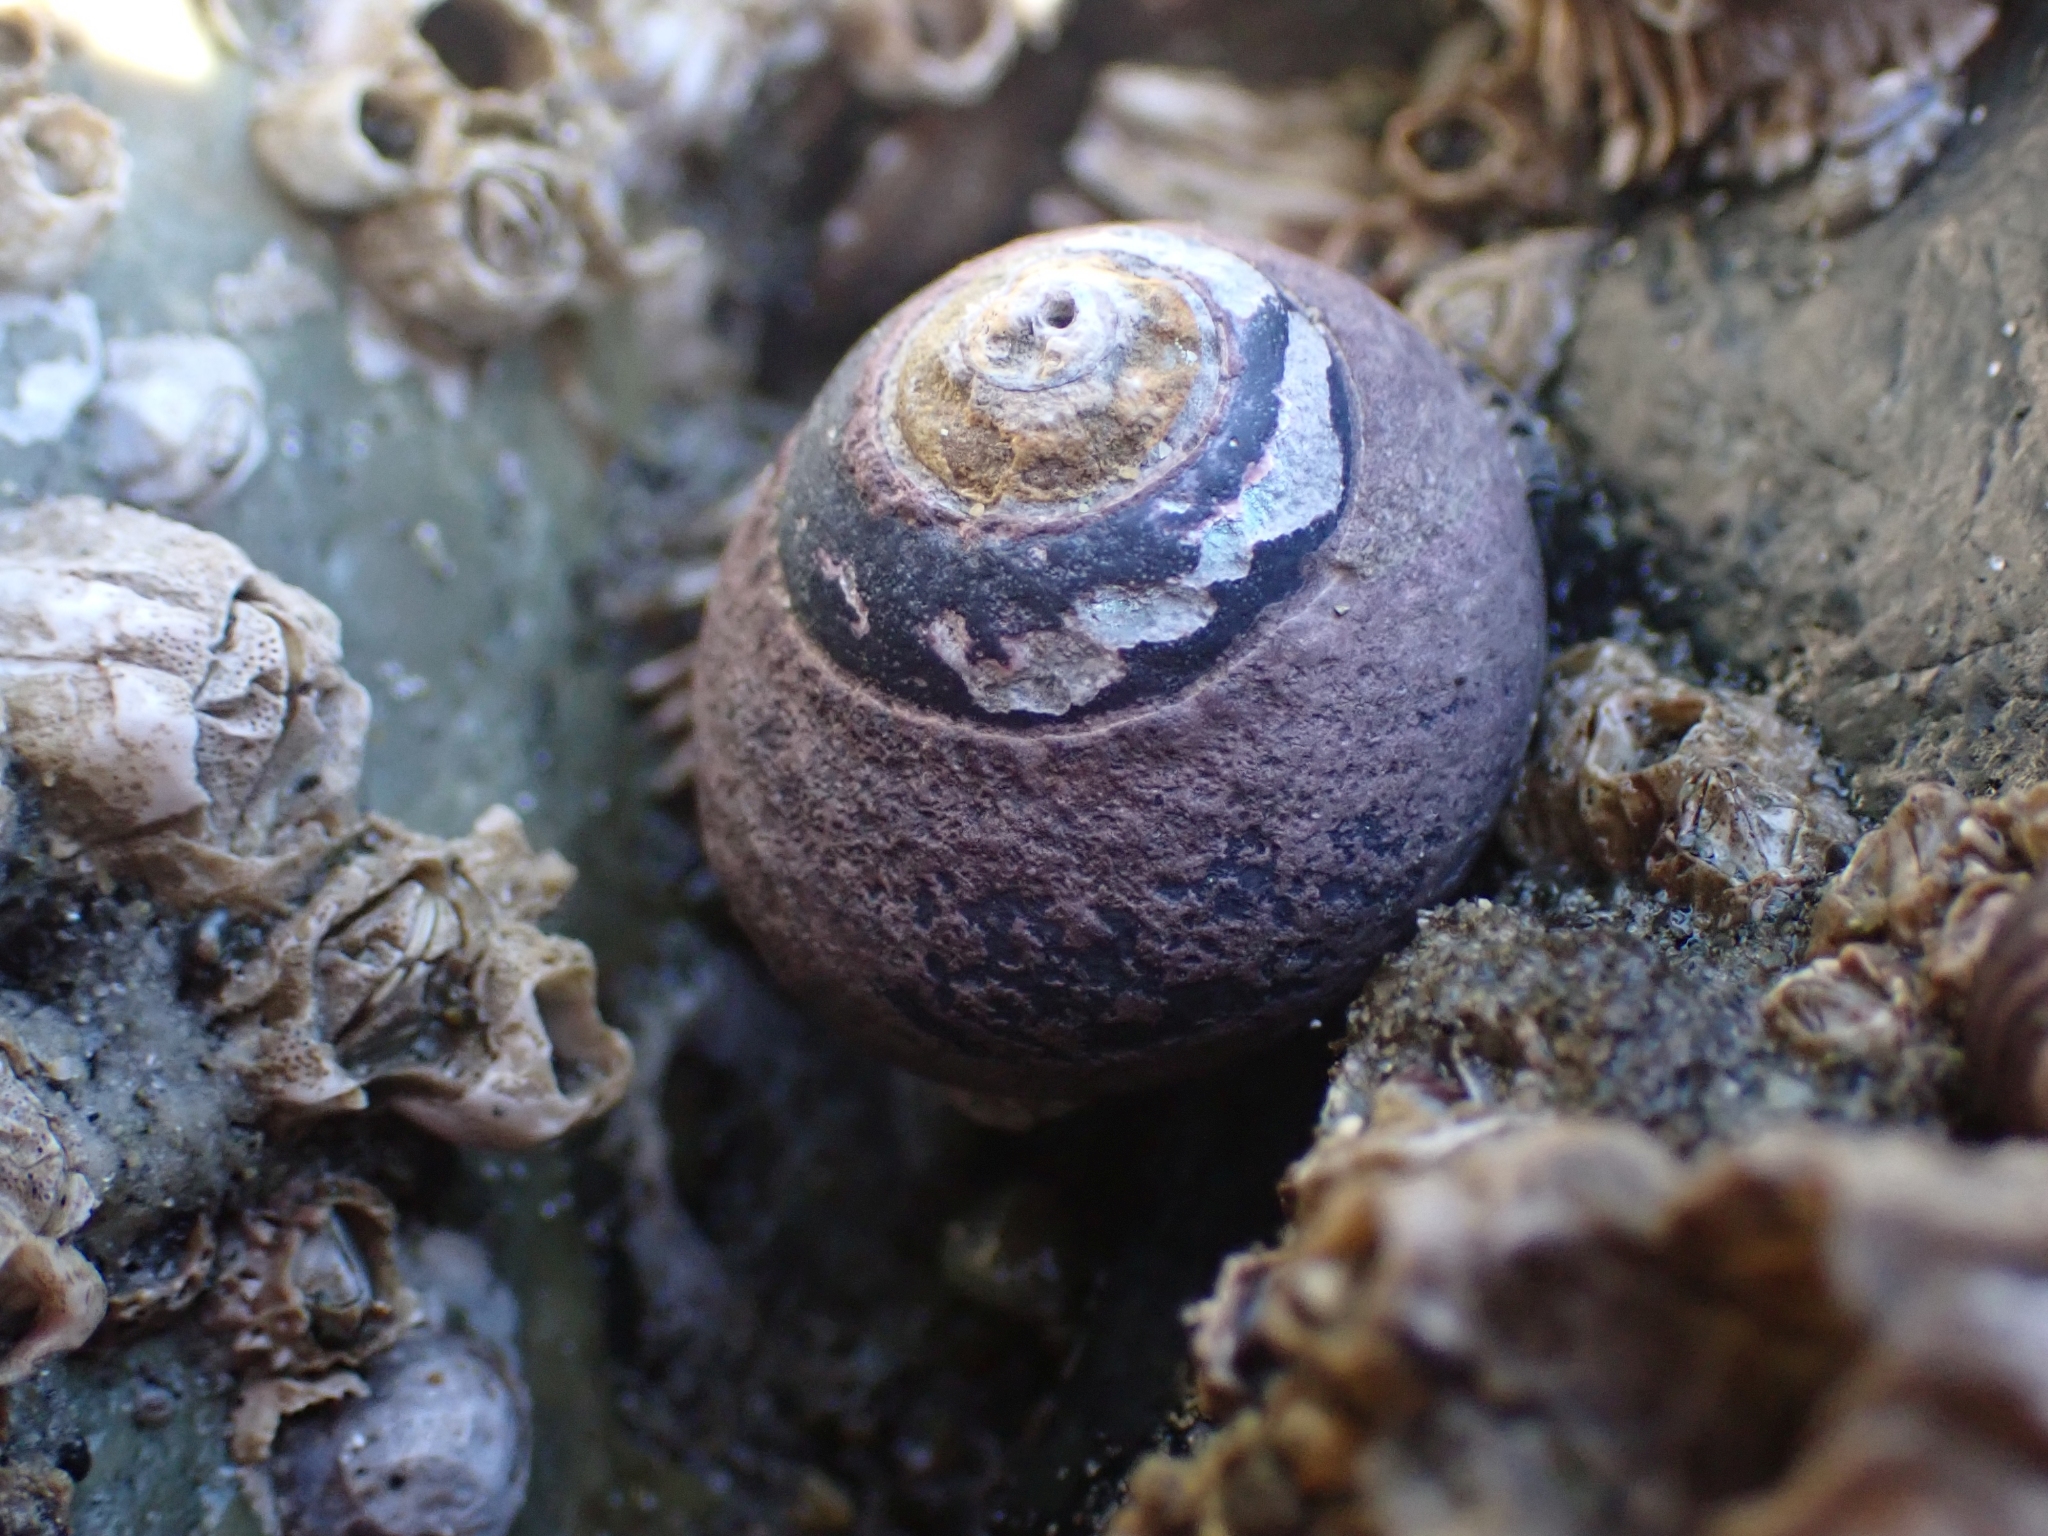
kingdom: Animalia
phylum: Mollusca
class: Gastropoda
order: Trochida
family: Tegulidae
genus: Tegula
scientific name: Tegula funebralis
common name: Black tegula
